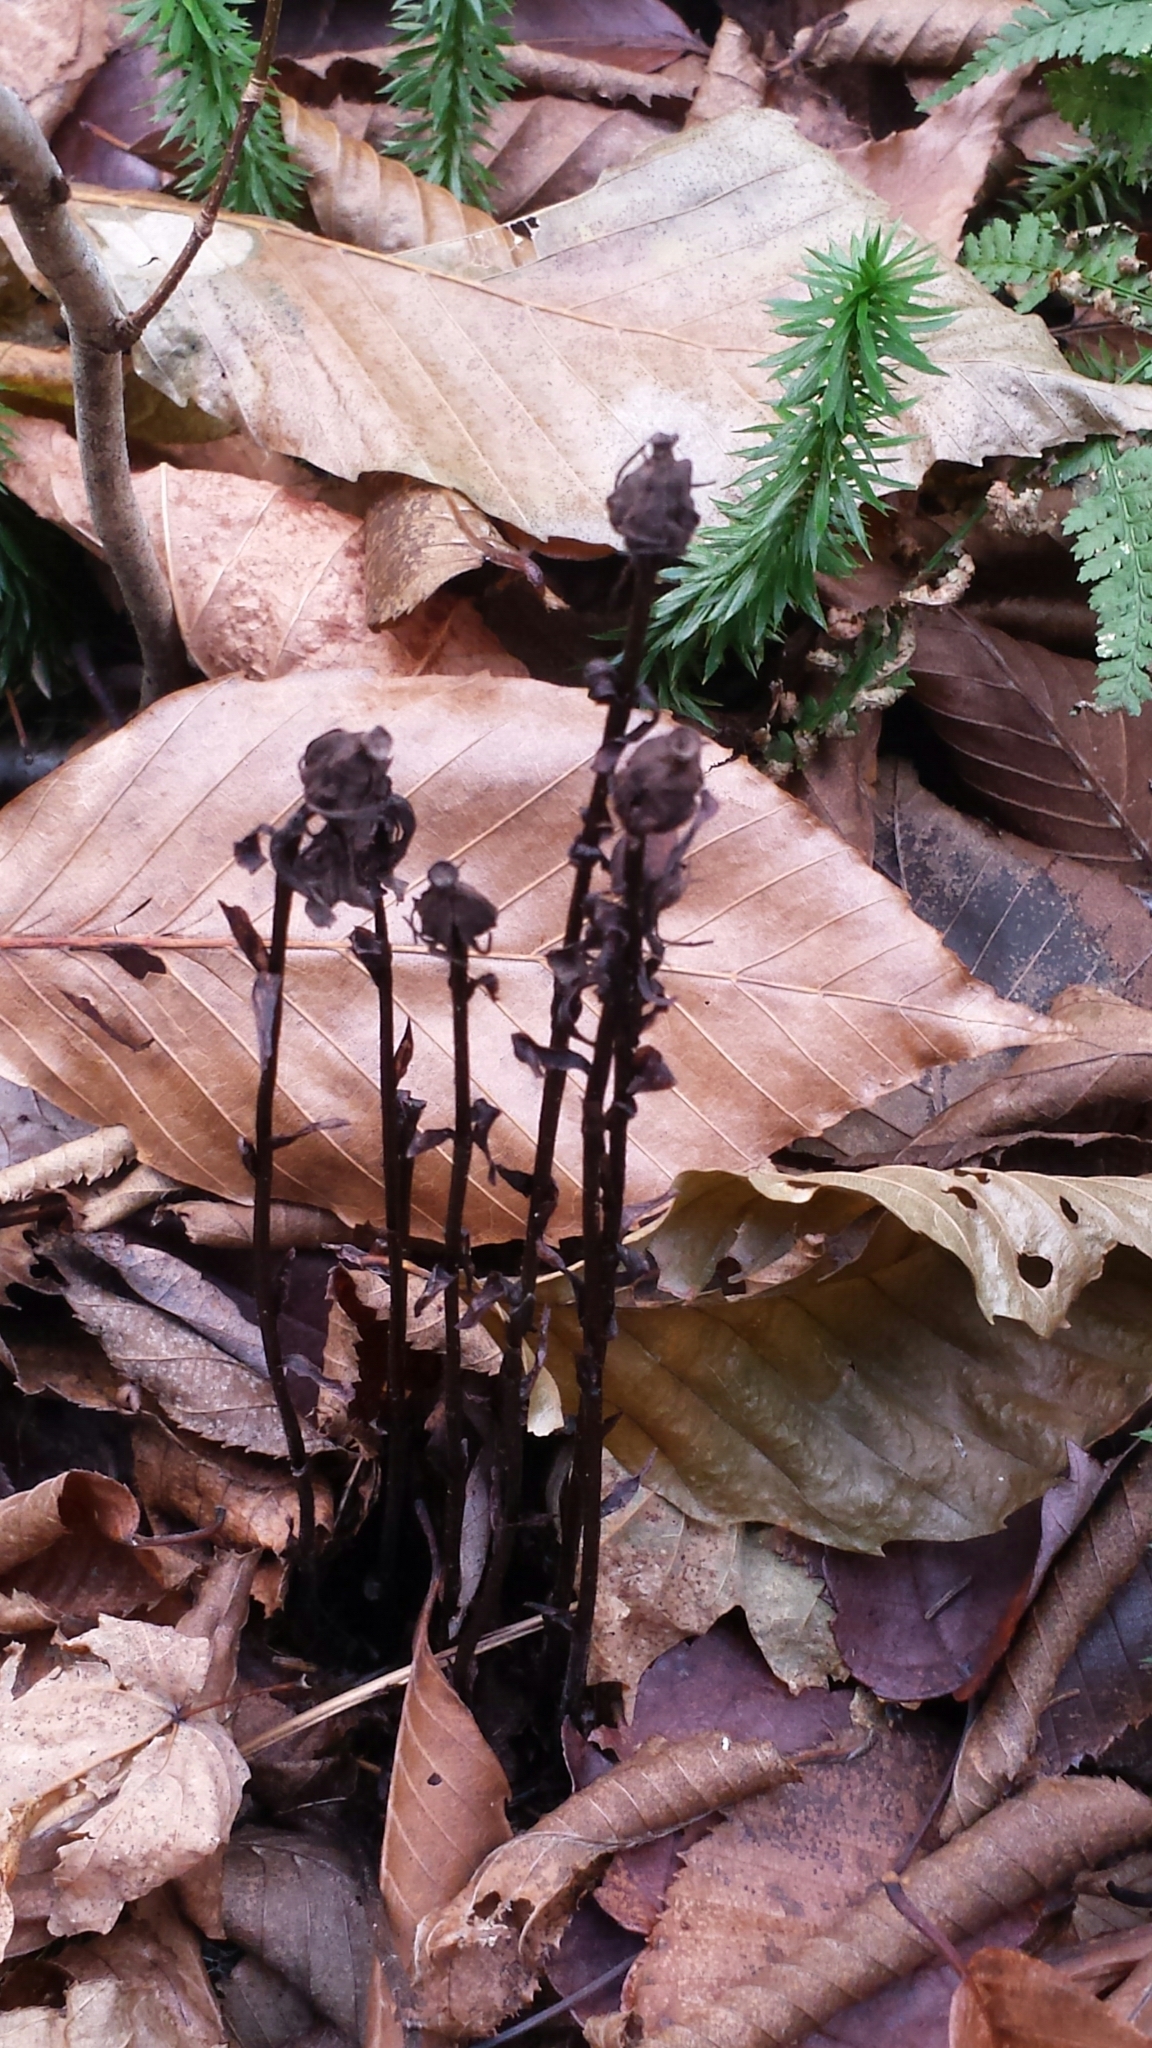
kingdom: Plantae
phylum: Tracheophyta
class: Magnoliopsida
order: Ericales
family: Ericaceae
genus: Monotropa
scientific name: Monotropa uniflora
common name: Convulsion root
